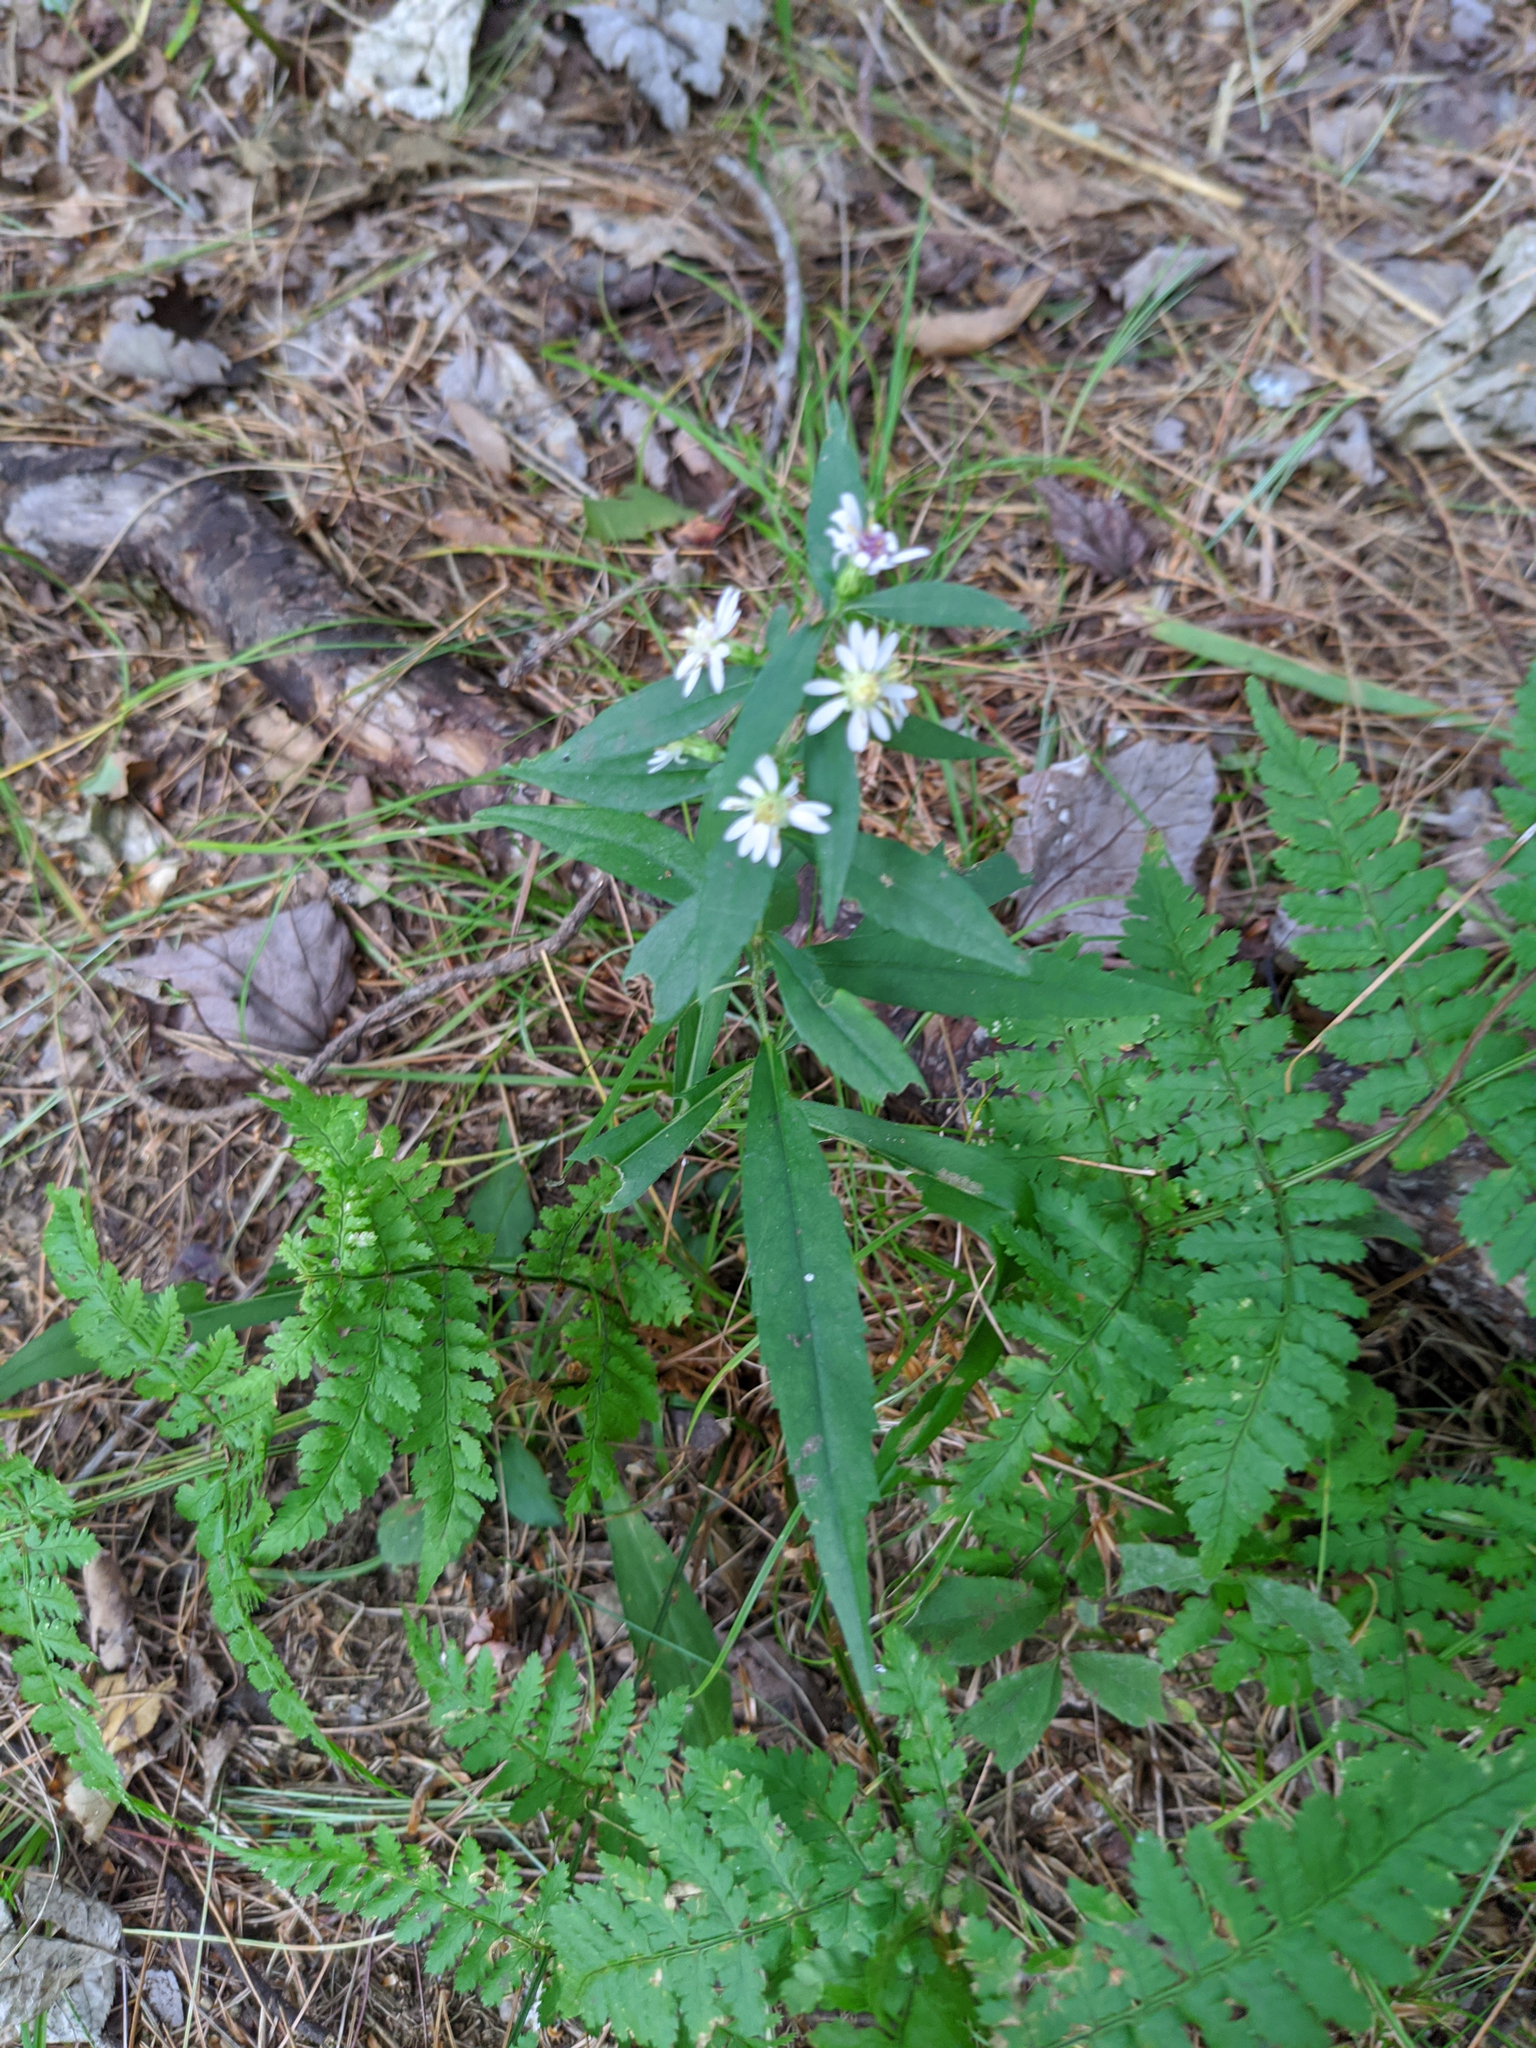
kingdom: Plantae
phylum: Tracheophyta
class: Magnoliopsida
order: Asterales
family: Asteraceae
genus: Symphyotrichum
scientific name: Symphyotrichum lateriflorum
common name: Calico aster
